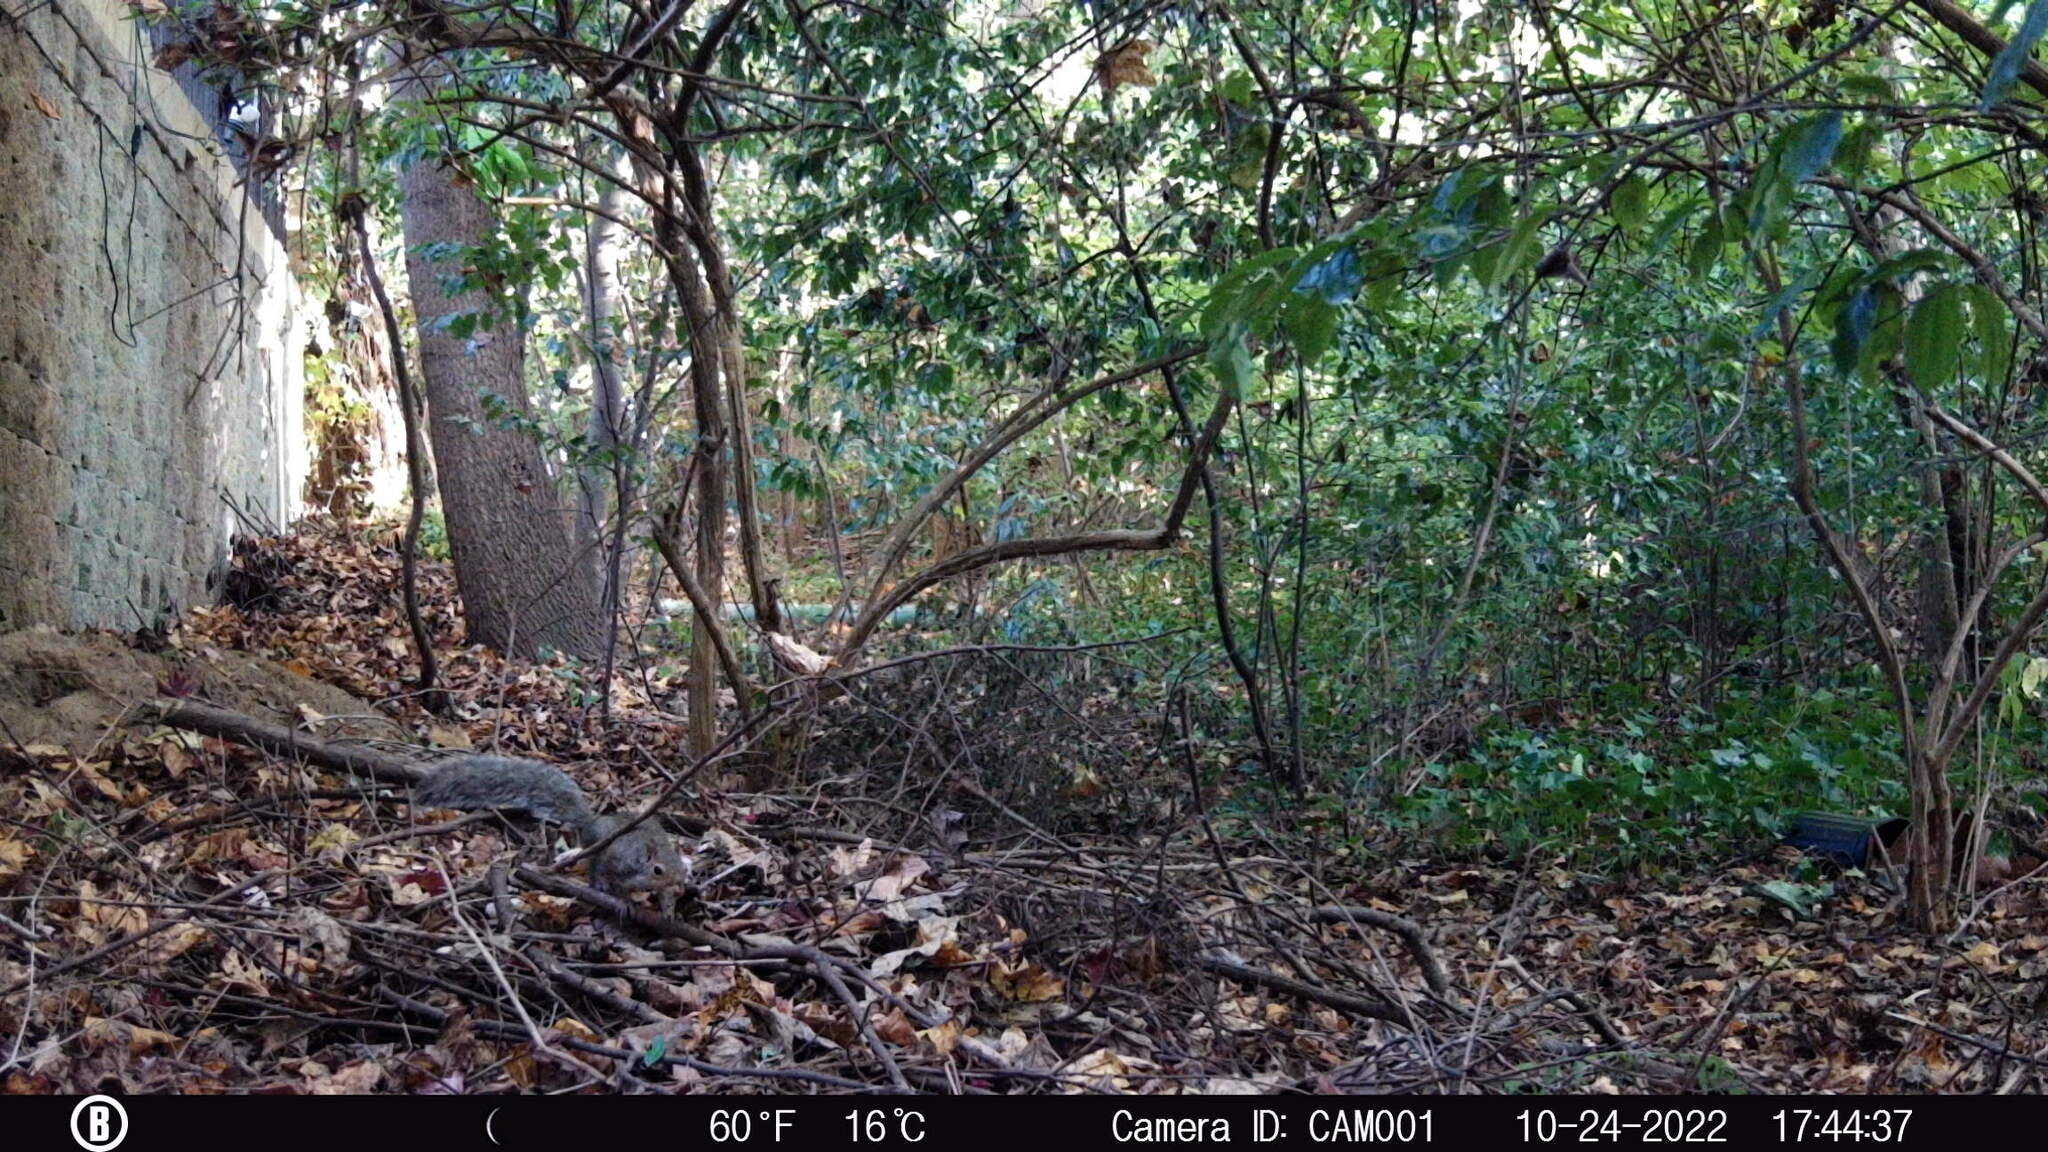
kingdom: Animalia
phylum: Chordata
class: Mammalia
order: Rodentia
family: Sciuridae
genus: Sciurus
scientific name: Sciurus carolinensis
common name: Eastern gray squirrel
